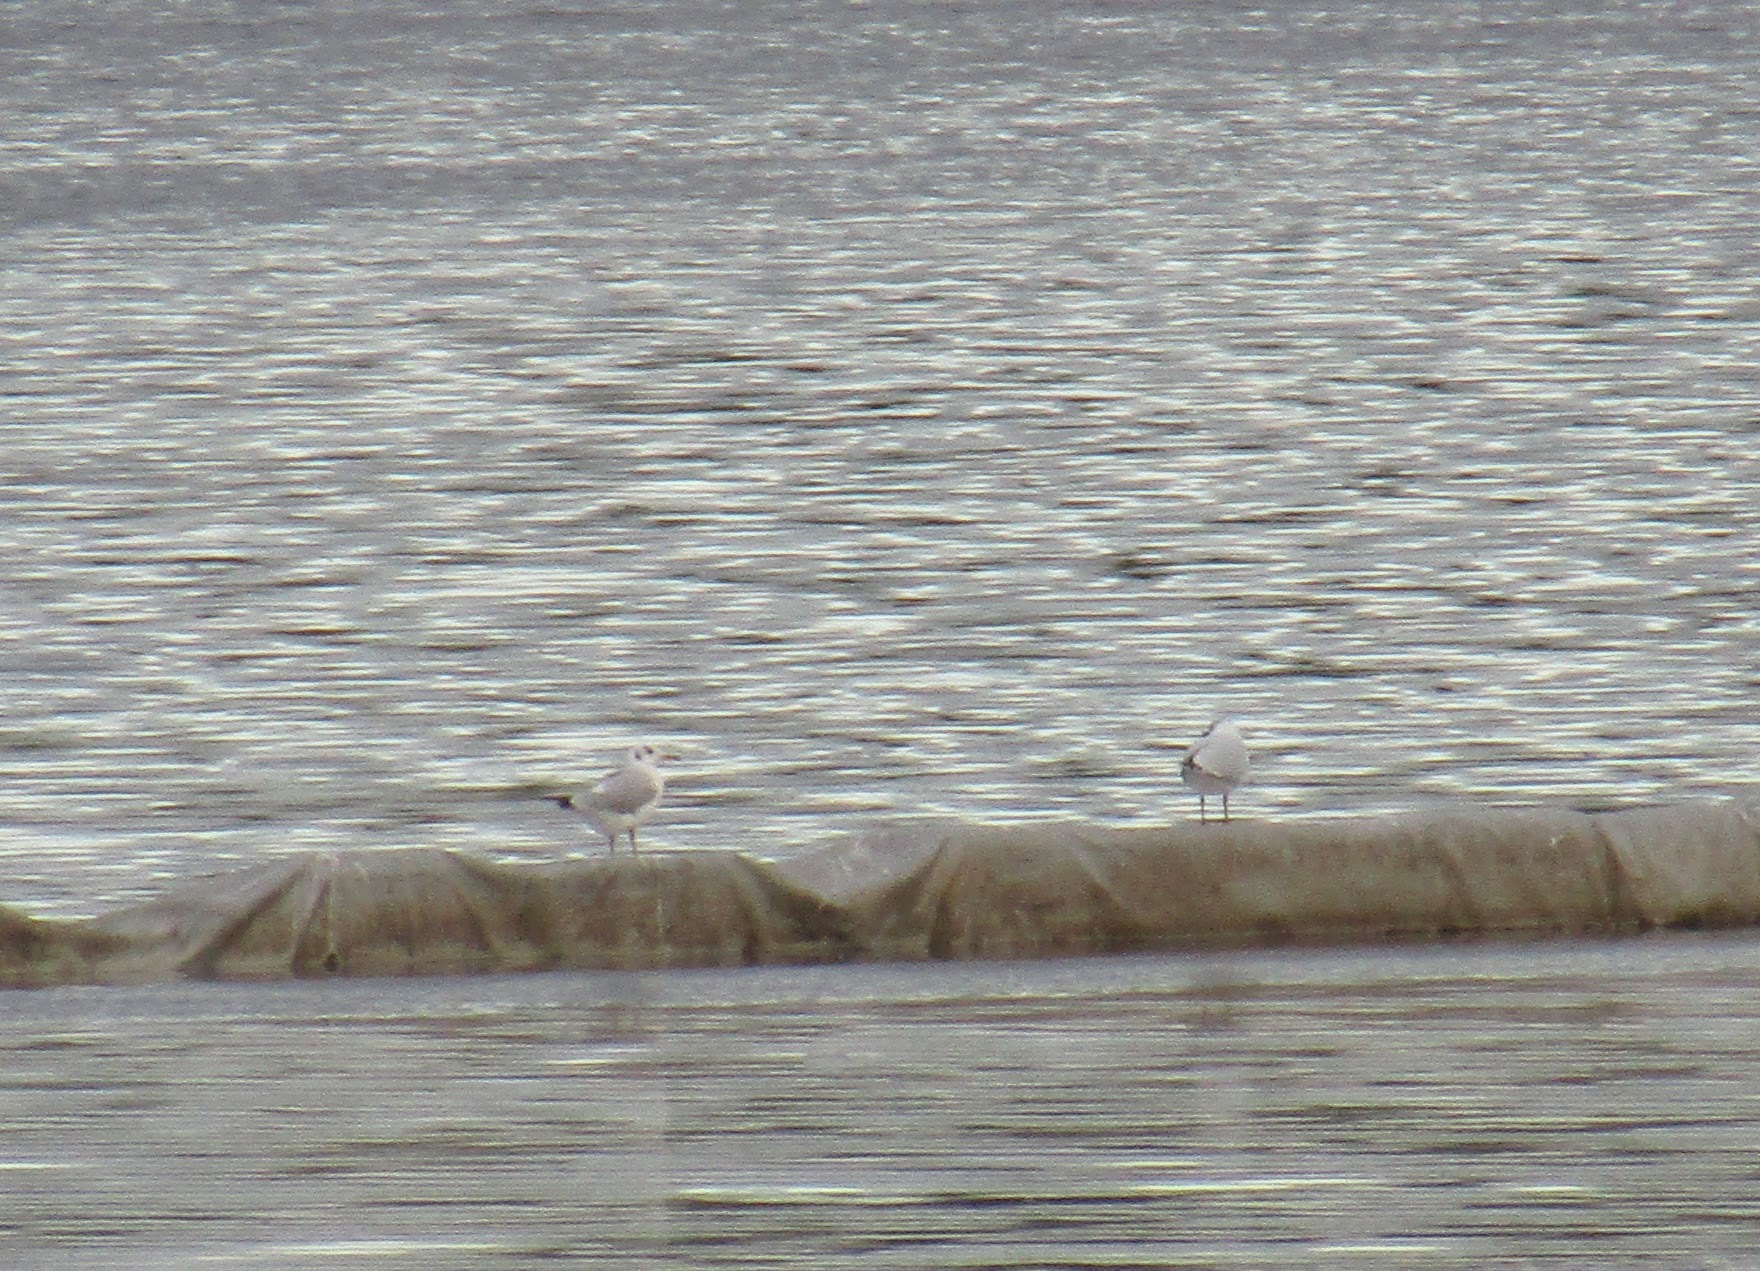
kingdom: Animalia
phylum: Chordata
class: Aves
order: Charadriiformes
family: Laridae
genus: Chroicocephalus
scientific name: Chroicocephalus maculipennis
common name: Brown-hooded gull
